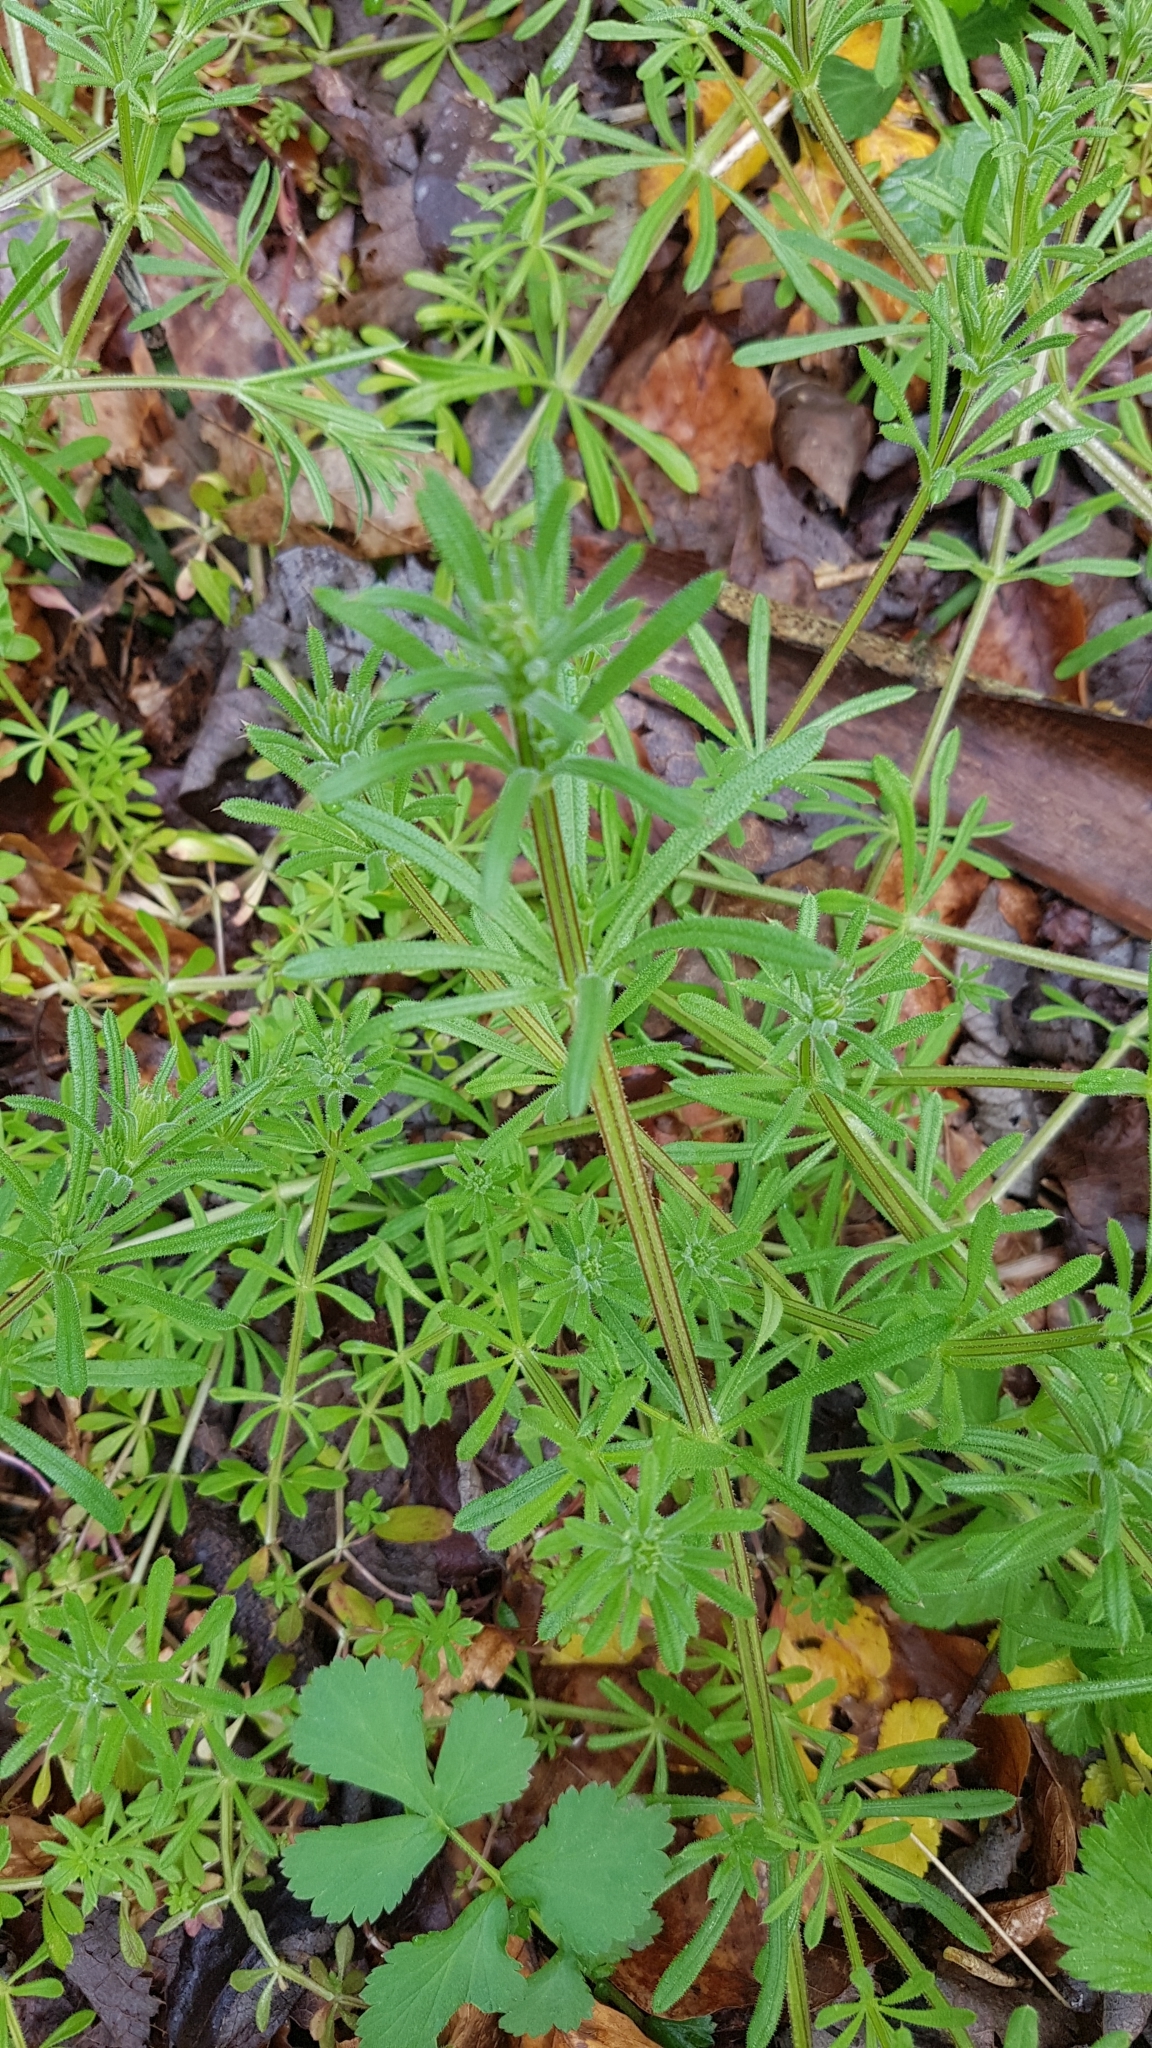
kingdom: Plantae
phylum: Tracheophyta
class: Magnoliopsida
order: Gentianales
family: Rubiaceae
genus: Galium
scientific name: Galium aparine
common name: Cleavers
